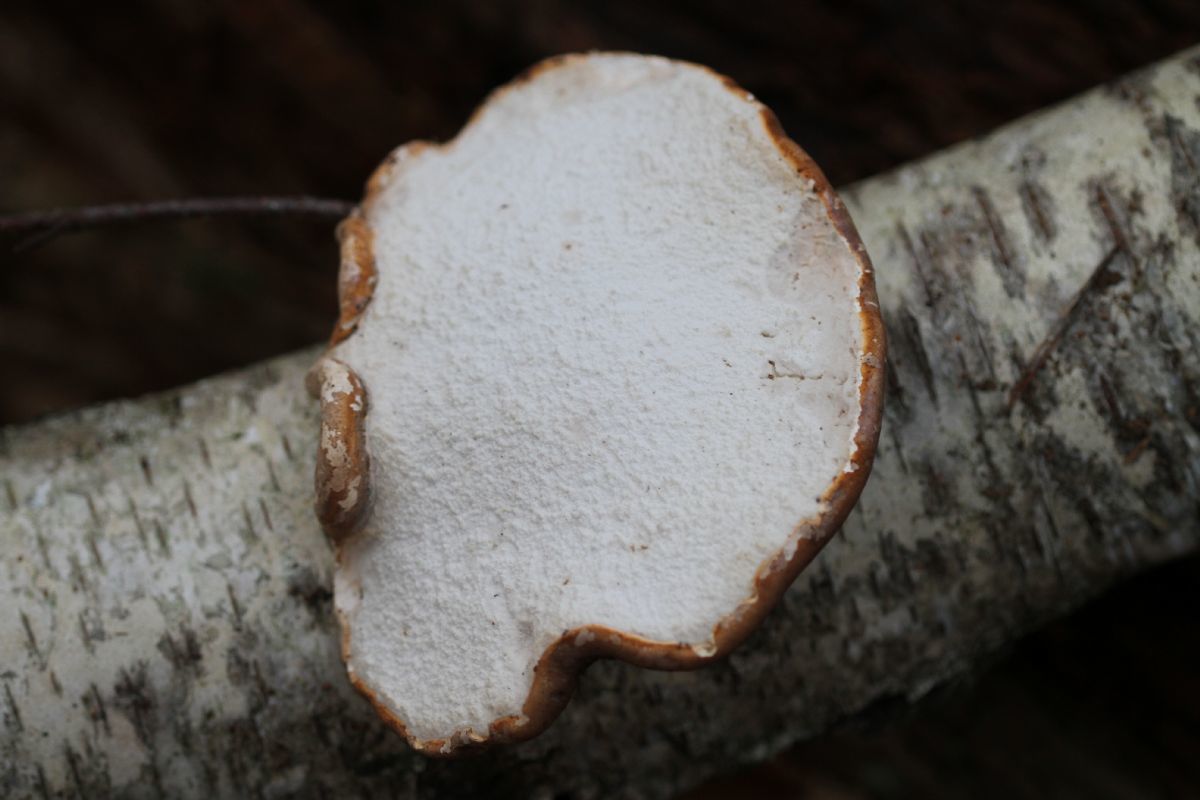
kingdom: Fungi
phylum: Basidiomycota
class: Agaricomycetes
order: Polyporales
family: Fomitopsidaceae
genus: Fomitopsis
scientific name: Fomitopsis betulina
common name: Birch polypore
